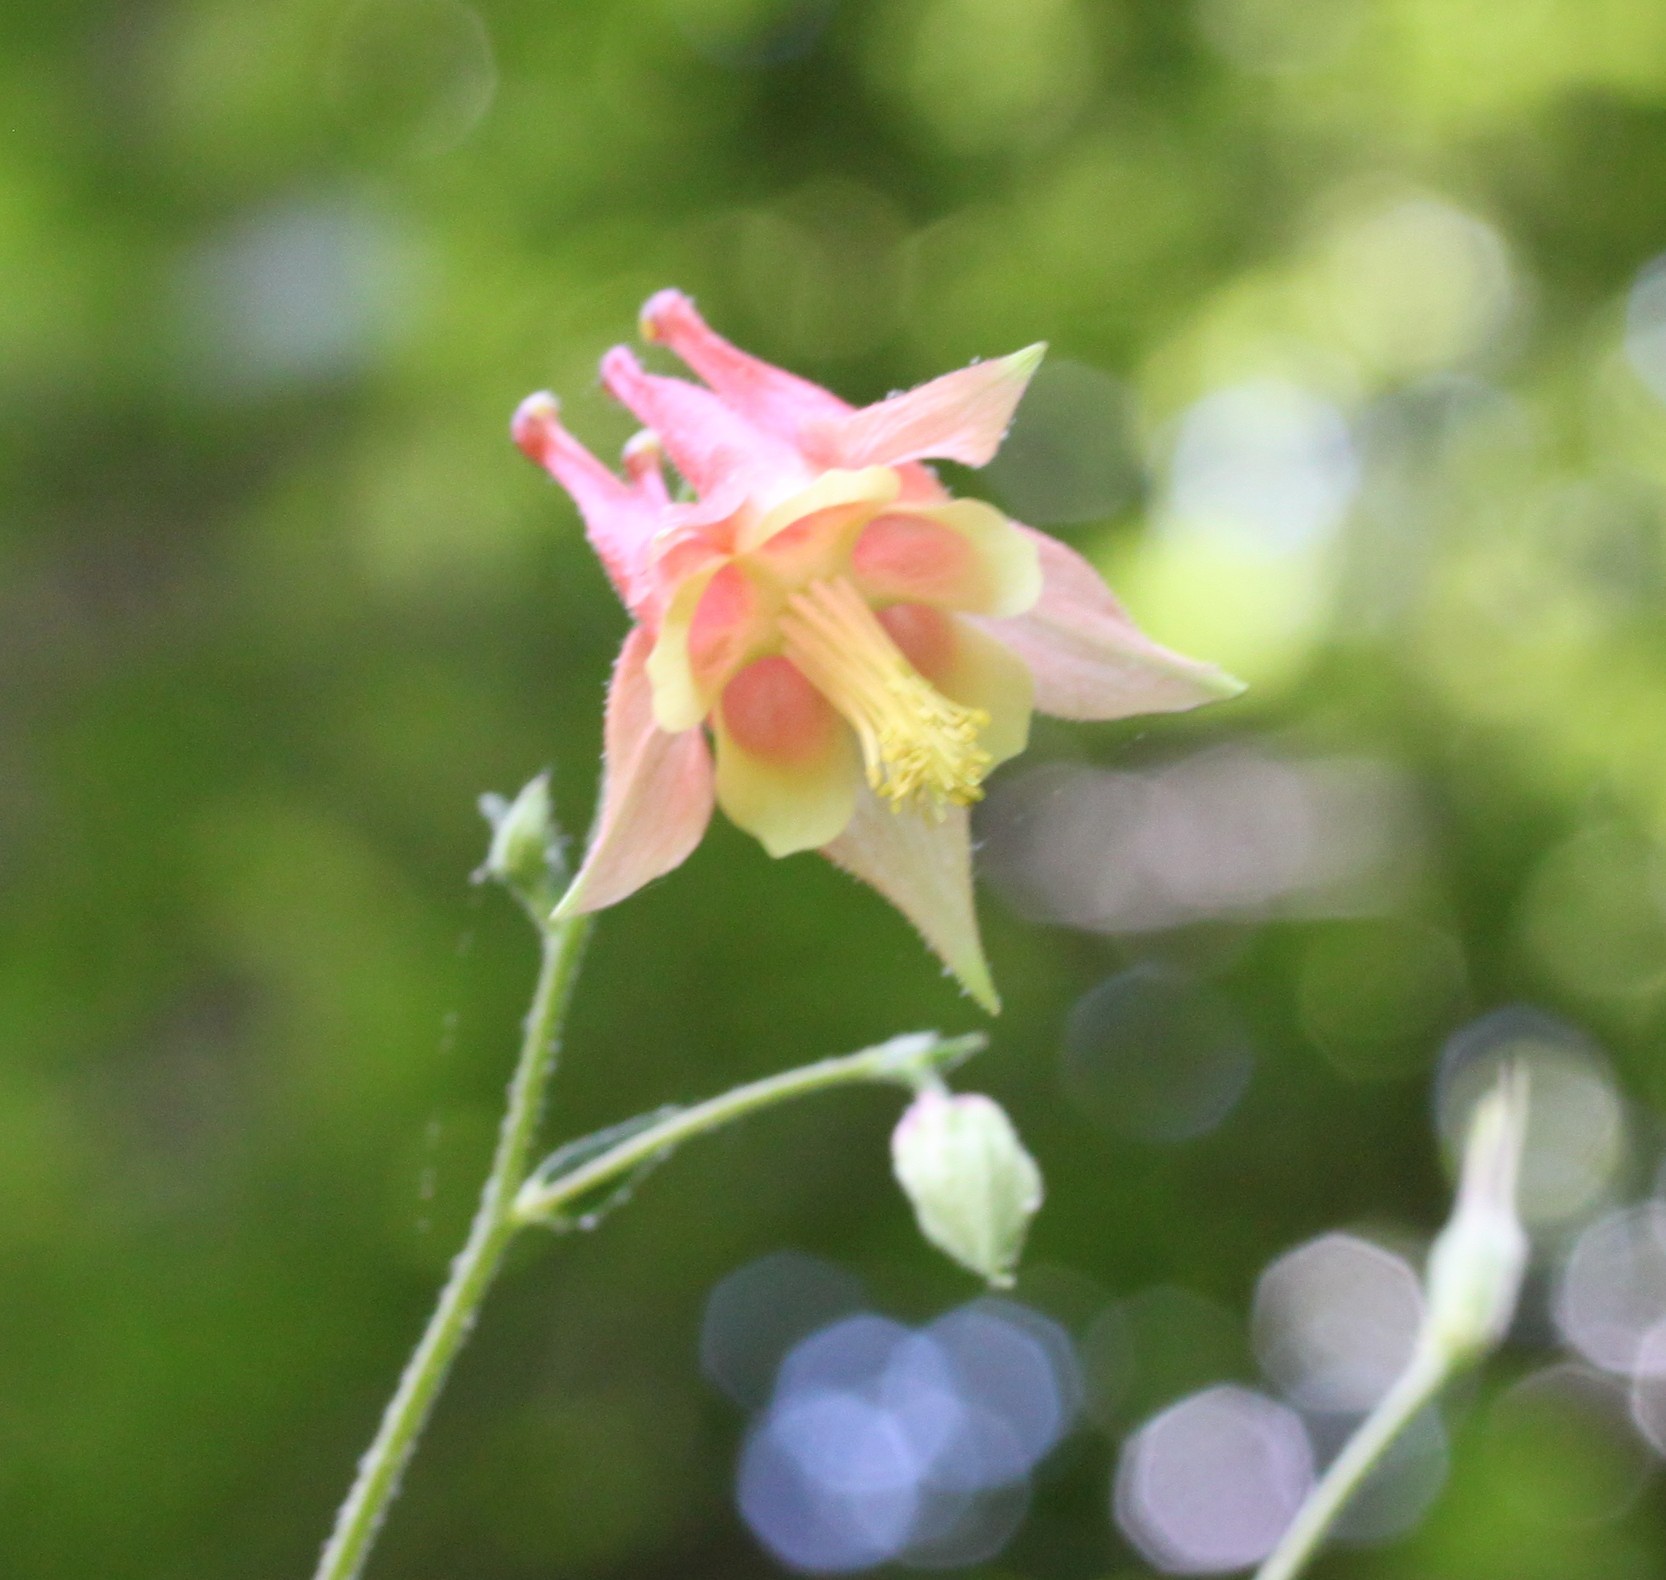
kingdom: Plantae
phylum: Tracheophyta
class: Magnoliopsida
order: Ranunculales
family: Ranunculaceae
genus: Aquilegia
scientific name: Aquilegia canadensis
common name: American columbine
